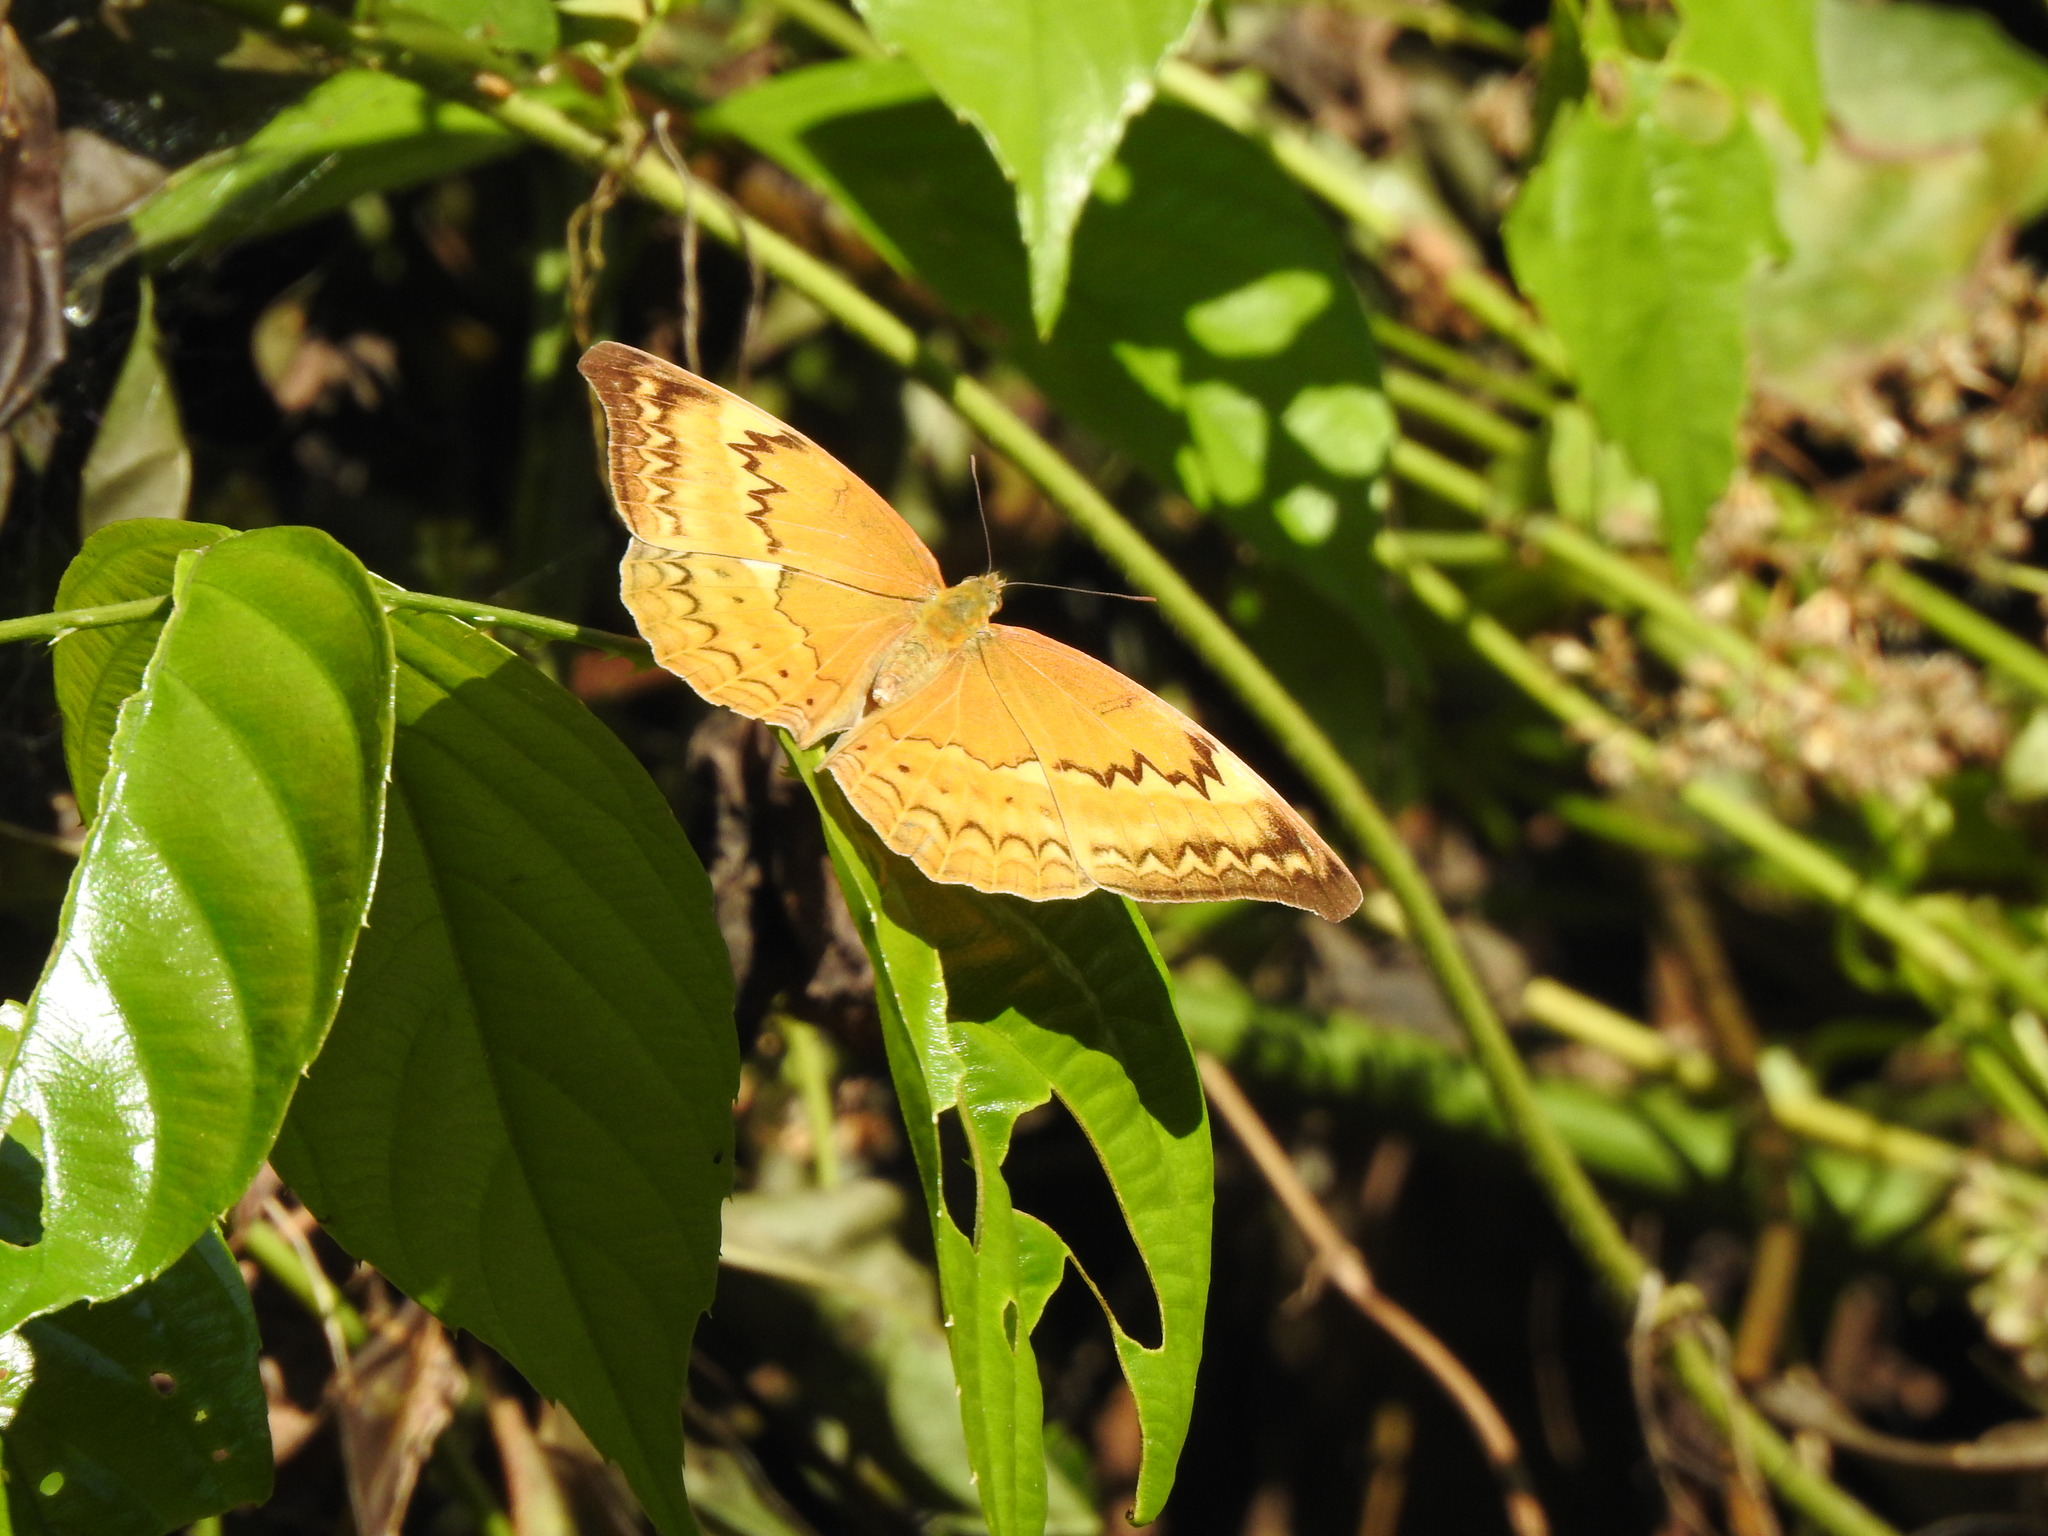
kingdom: Animalia
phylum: Arthropoda
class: Insecta
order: Lepidoptera
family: Nymphalidae
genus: Cirrochroa
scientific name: Cirrochroa aoris
